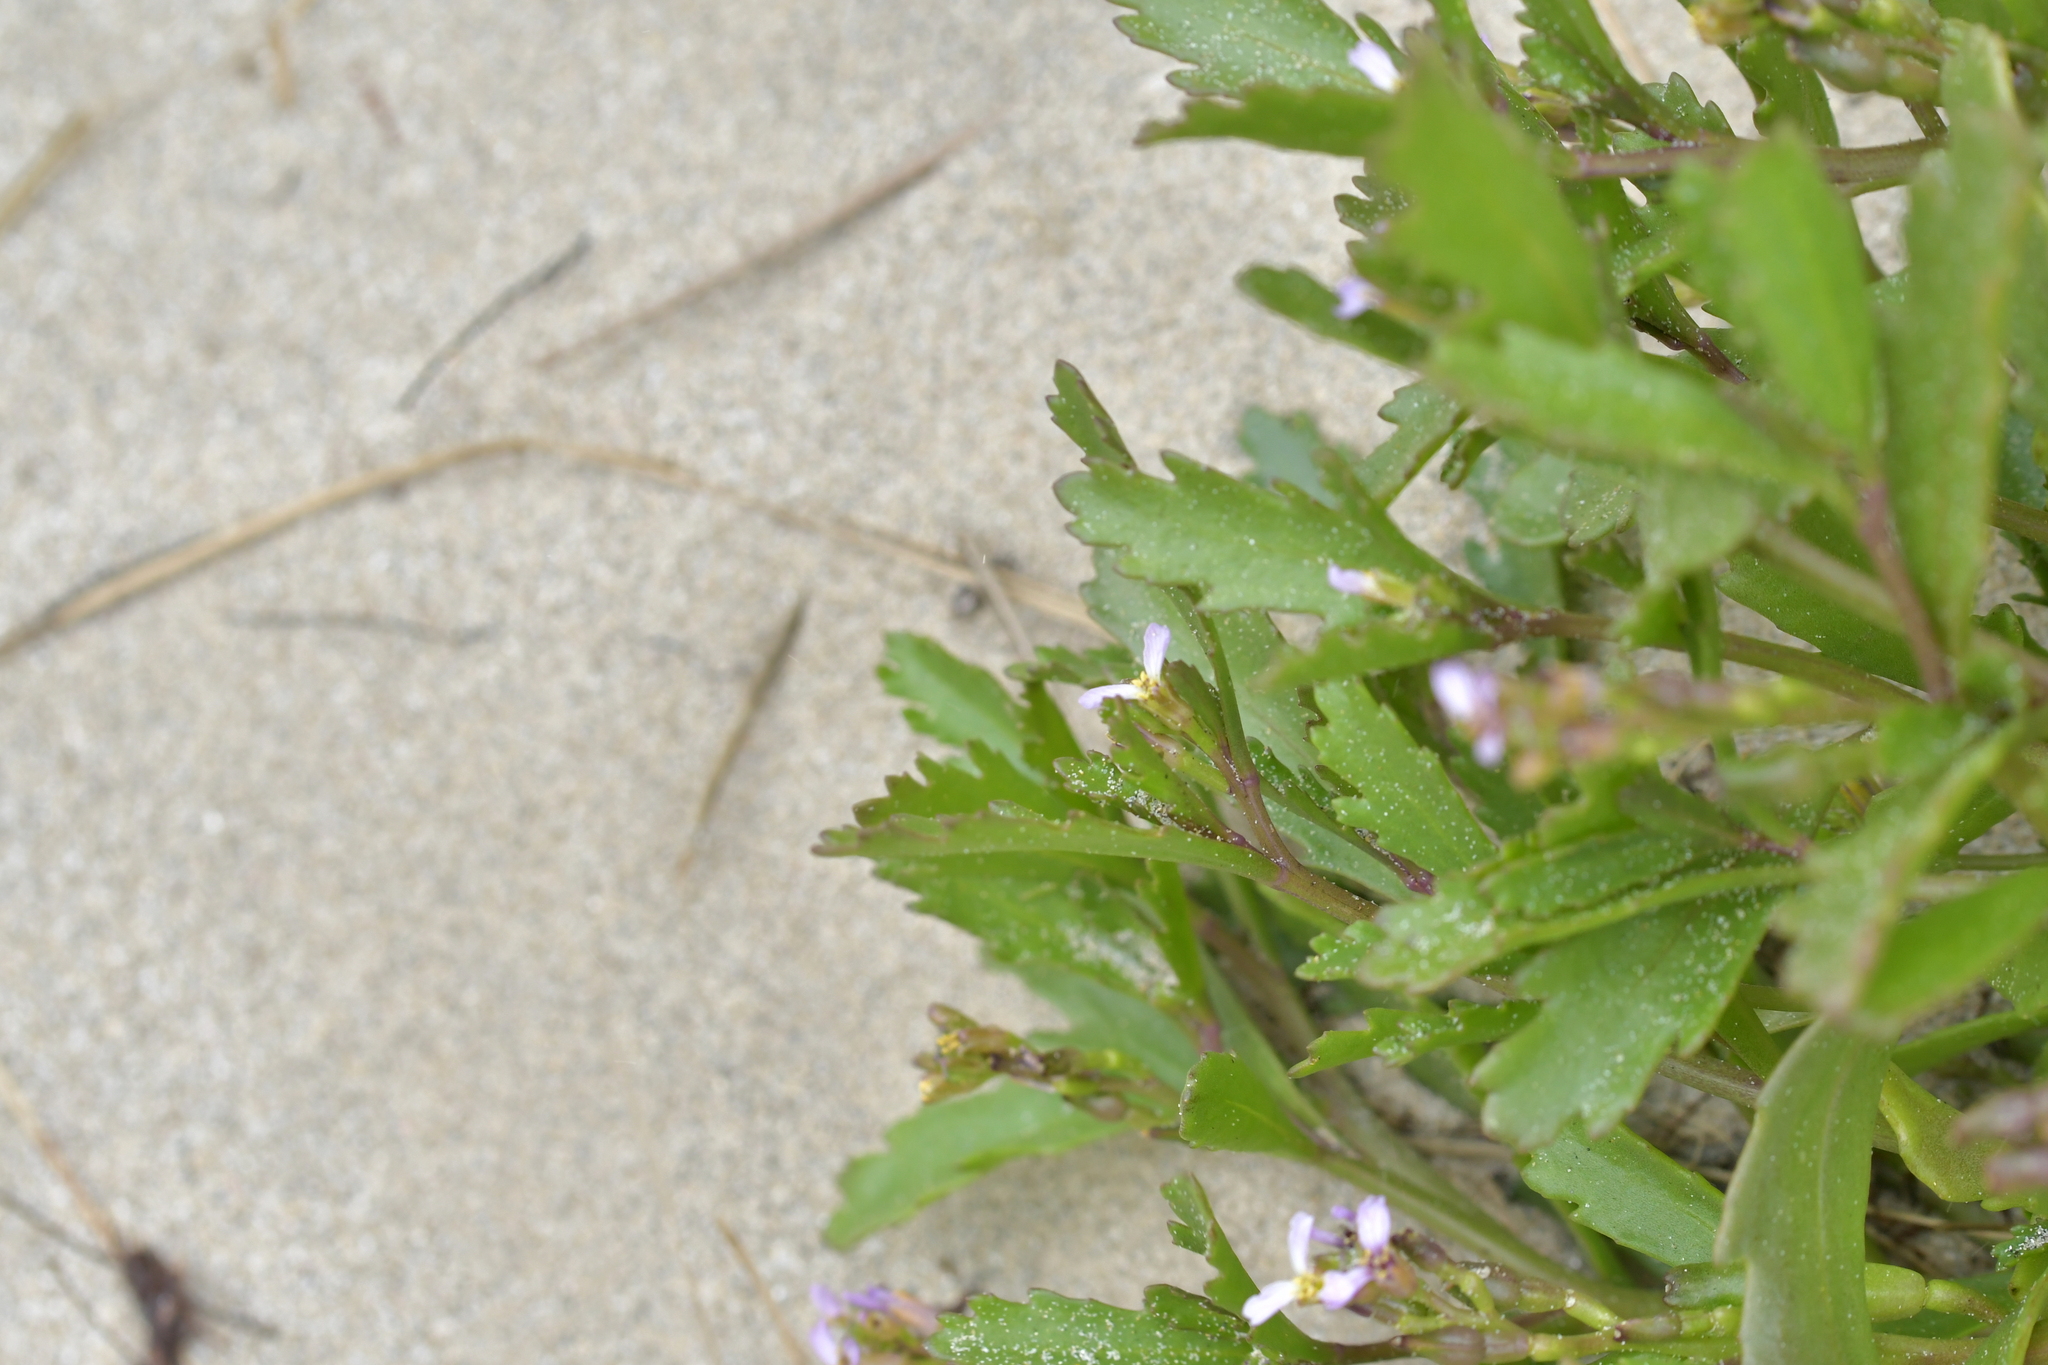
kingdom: Plantae
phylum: Tracheophyta
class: Magnoliopsida
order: Brassicales
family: Brassicaceae
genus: Cakile
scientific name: Cakile edentula
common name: American sea rocket
